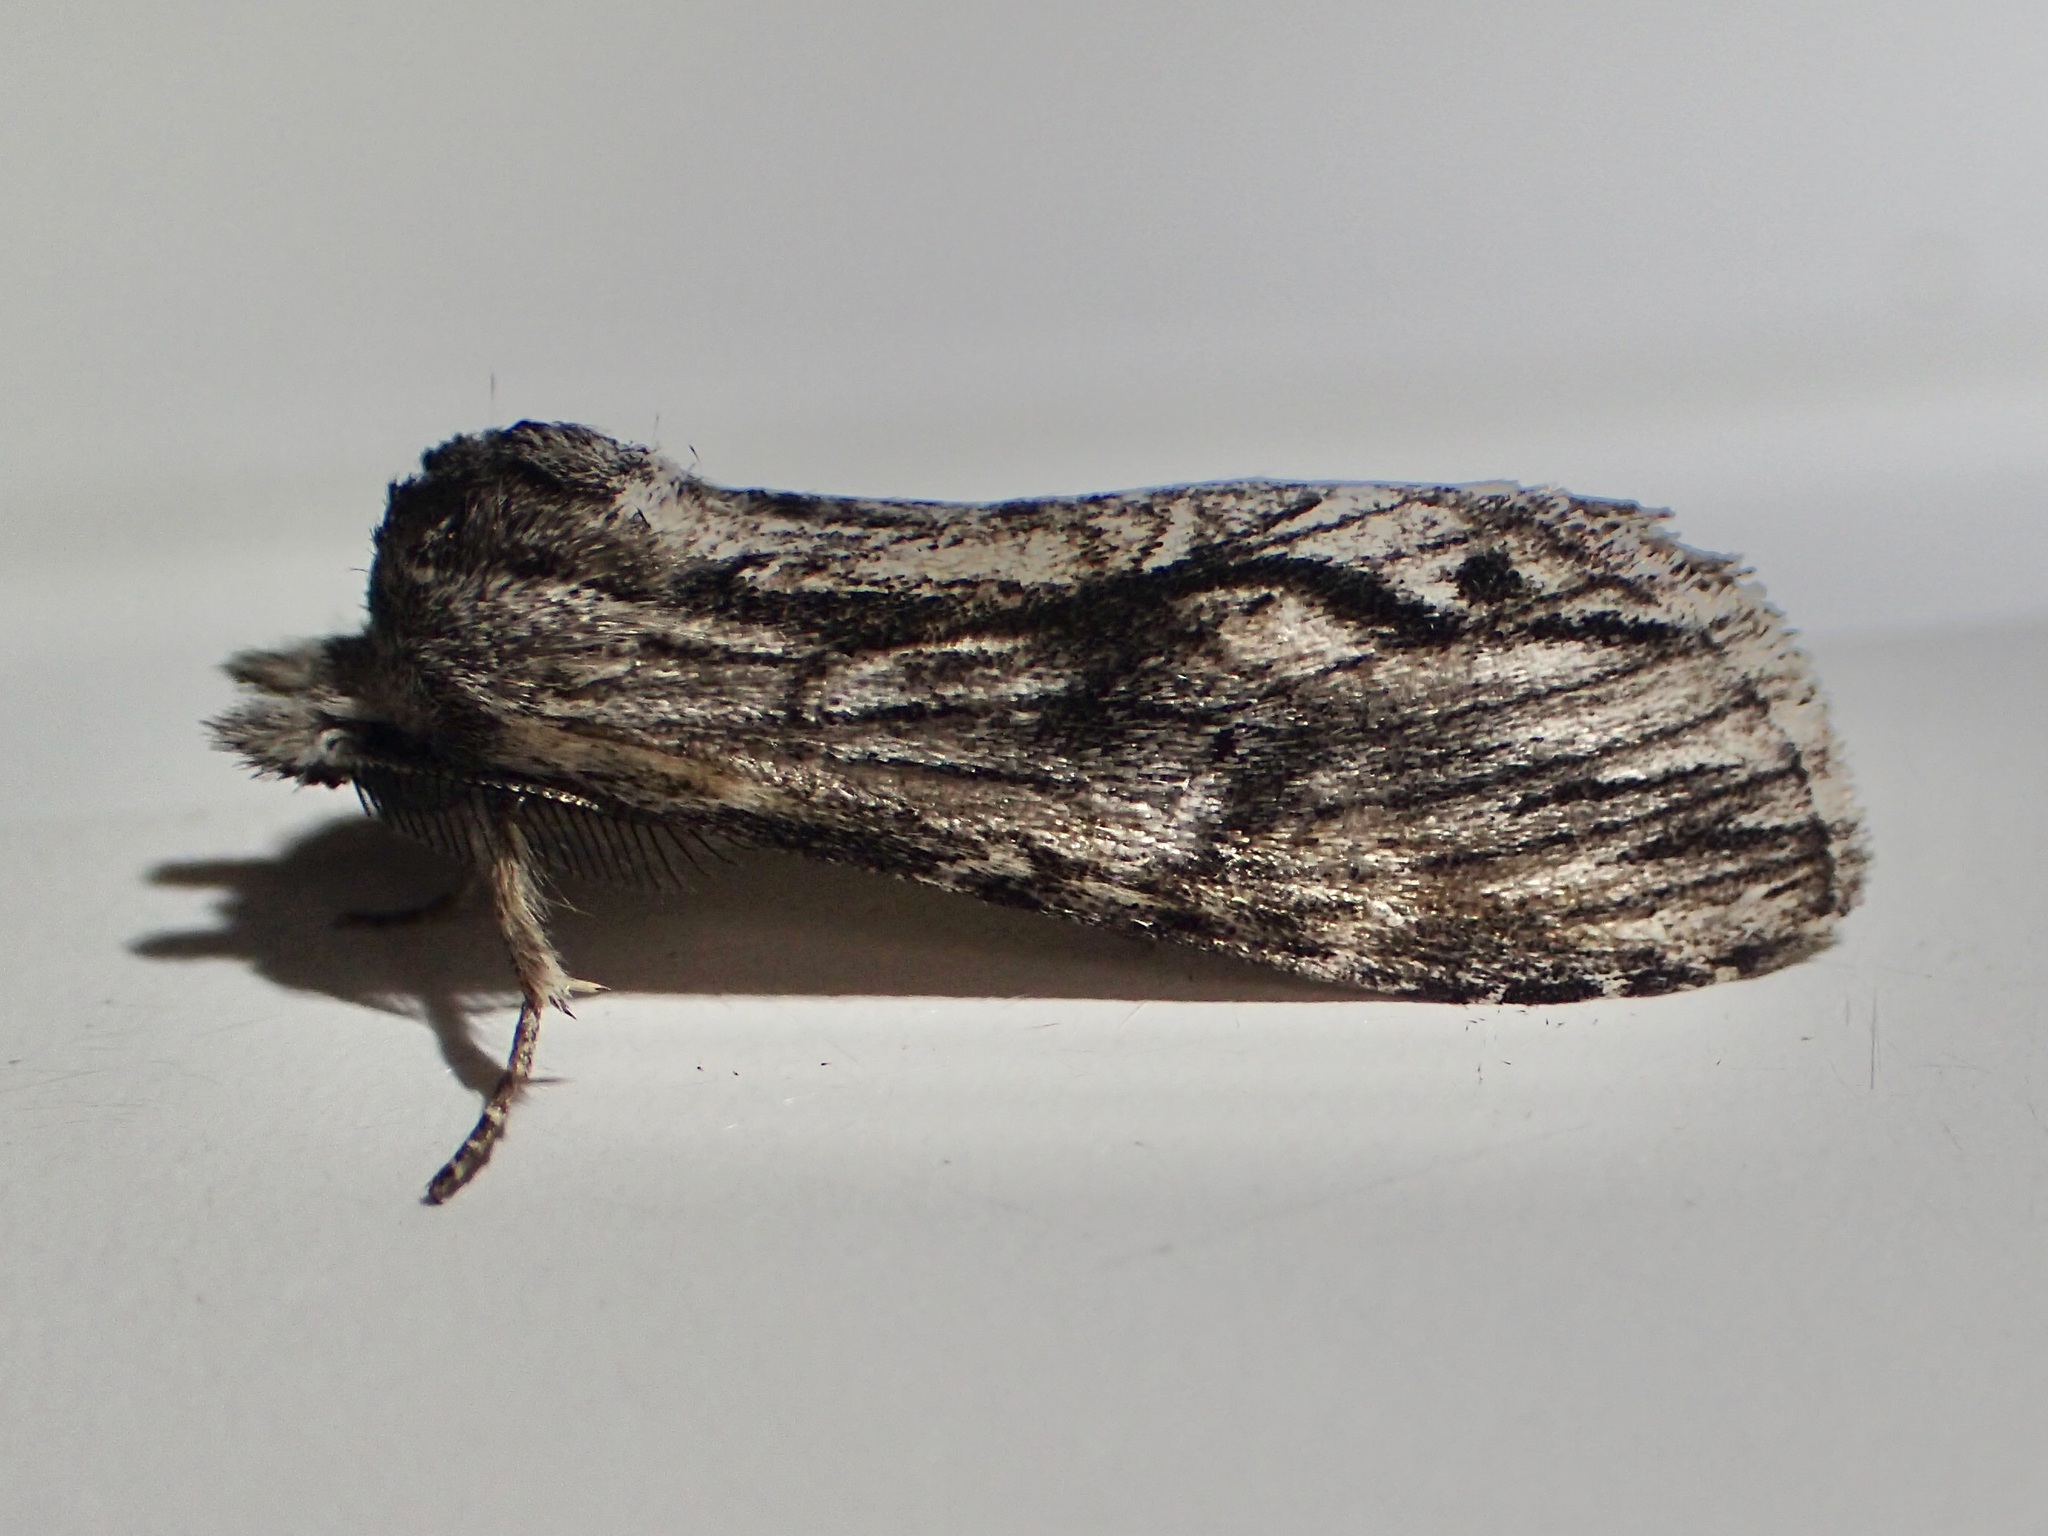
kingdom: Animalia
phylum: Arthropoda
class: Insecta
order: Lepidoptera
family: Notodontidae
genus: Notela
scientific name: Notela jaliscana
